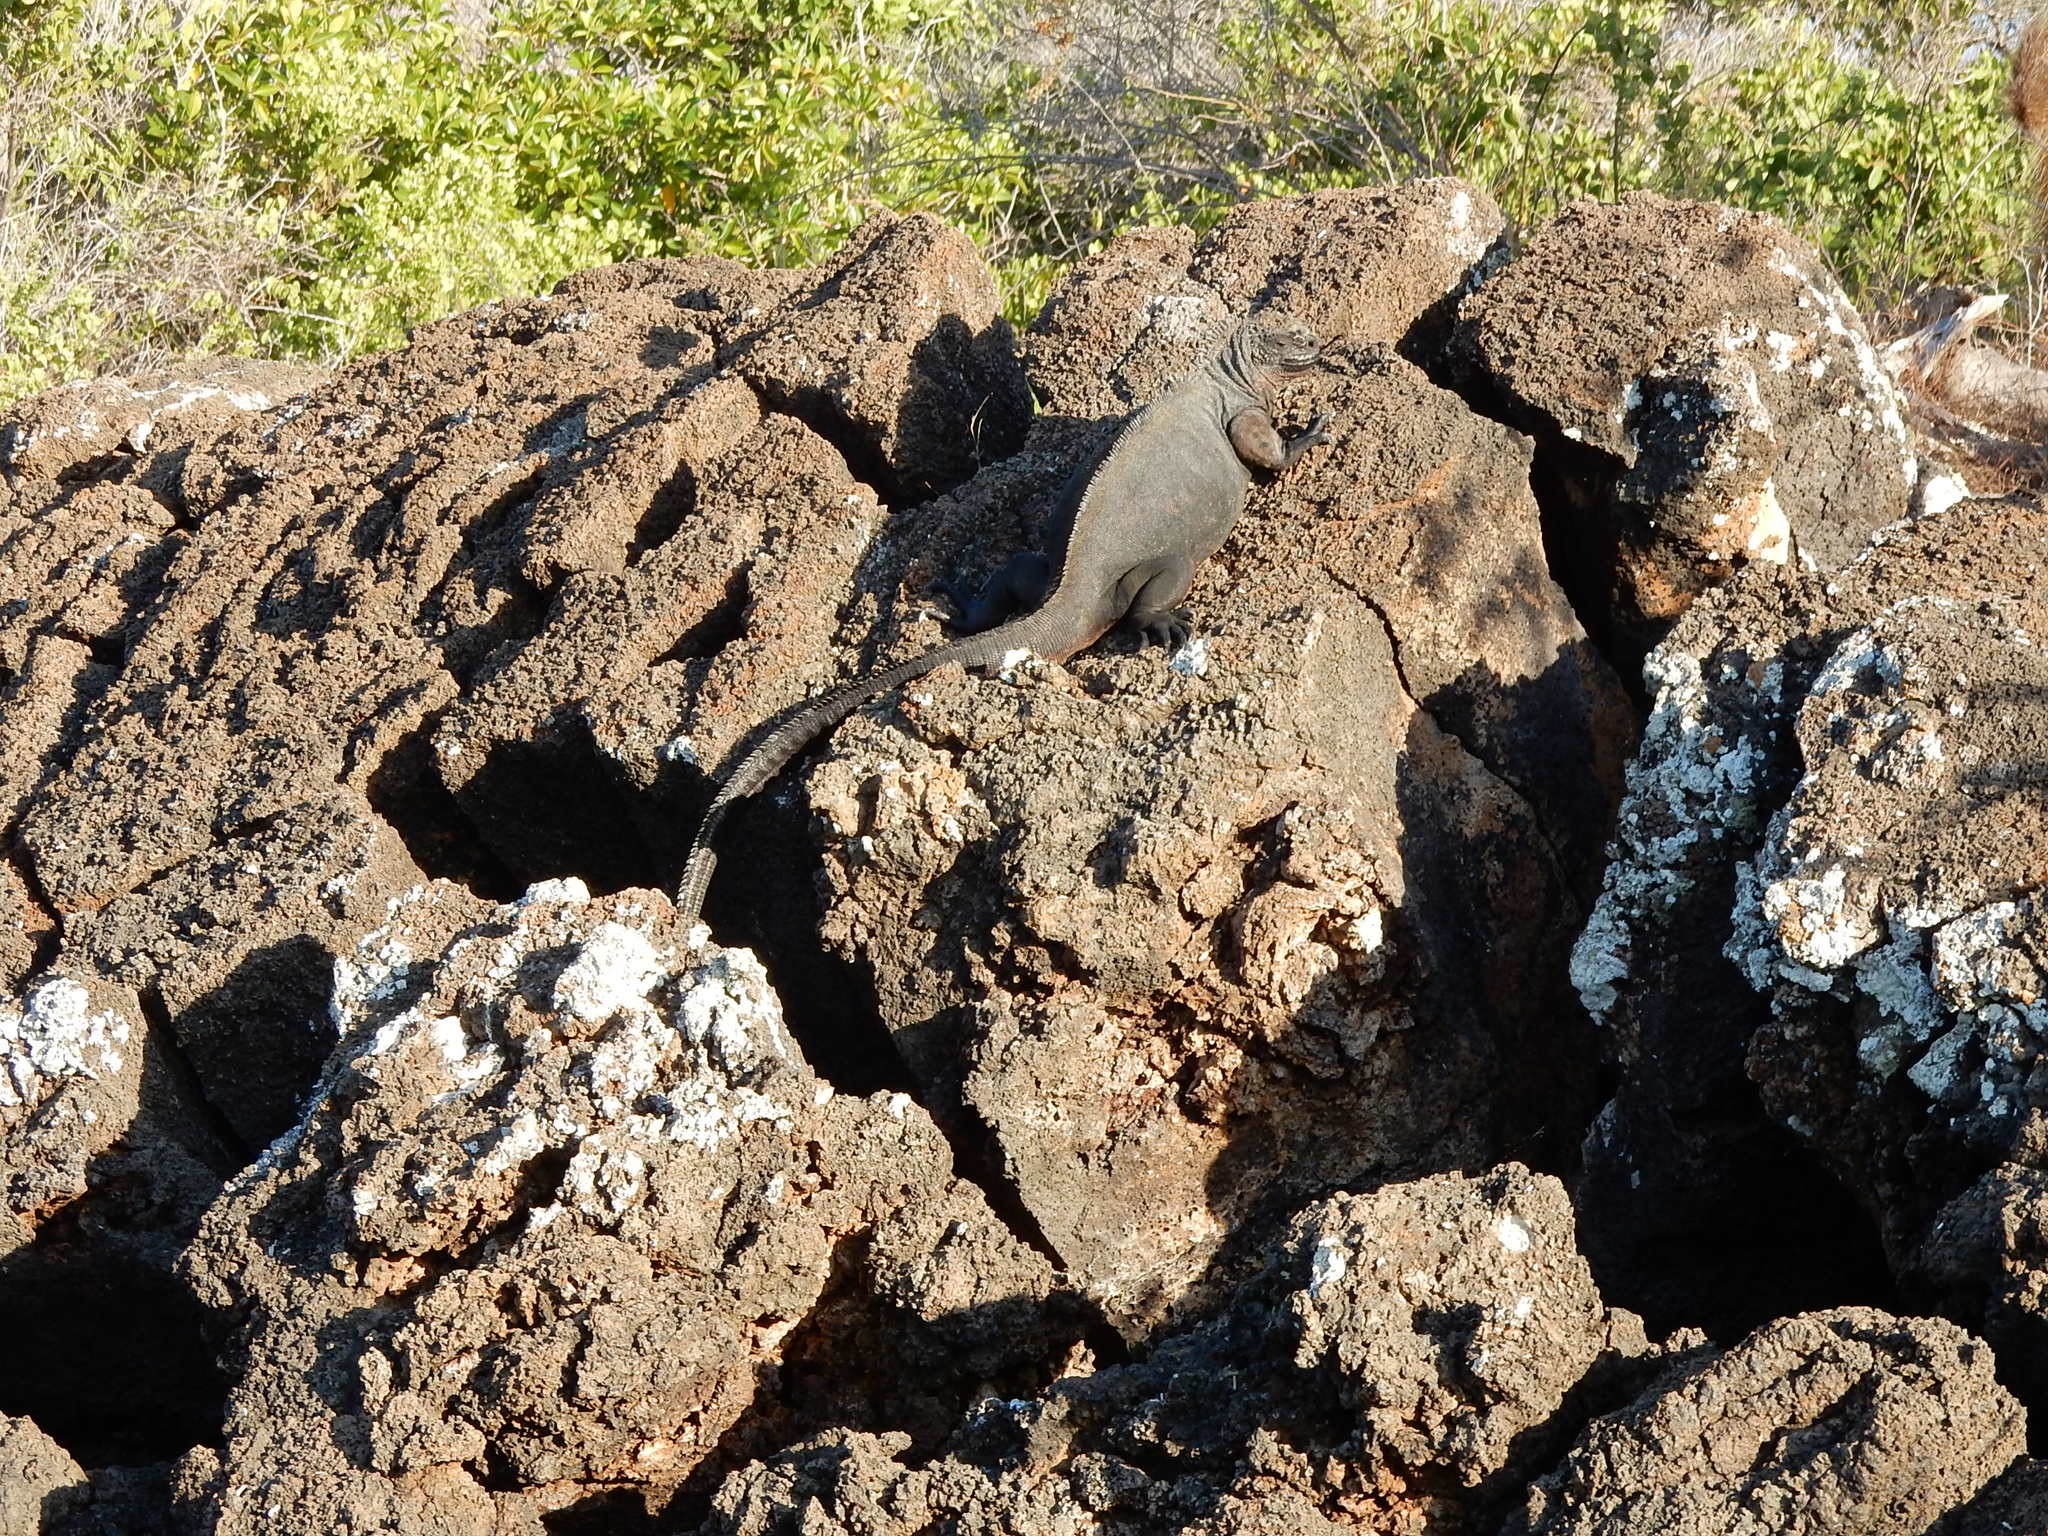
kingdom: Animalia
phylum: Chordata
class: Squamata
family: Iguanidae
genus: Amblyrhynchus
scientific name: Amblyrhynchus cristatus
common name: Marine iguana
